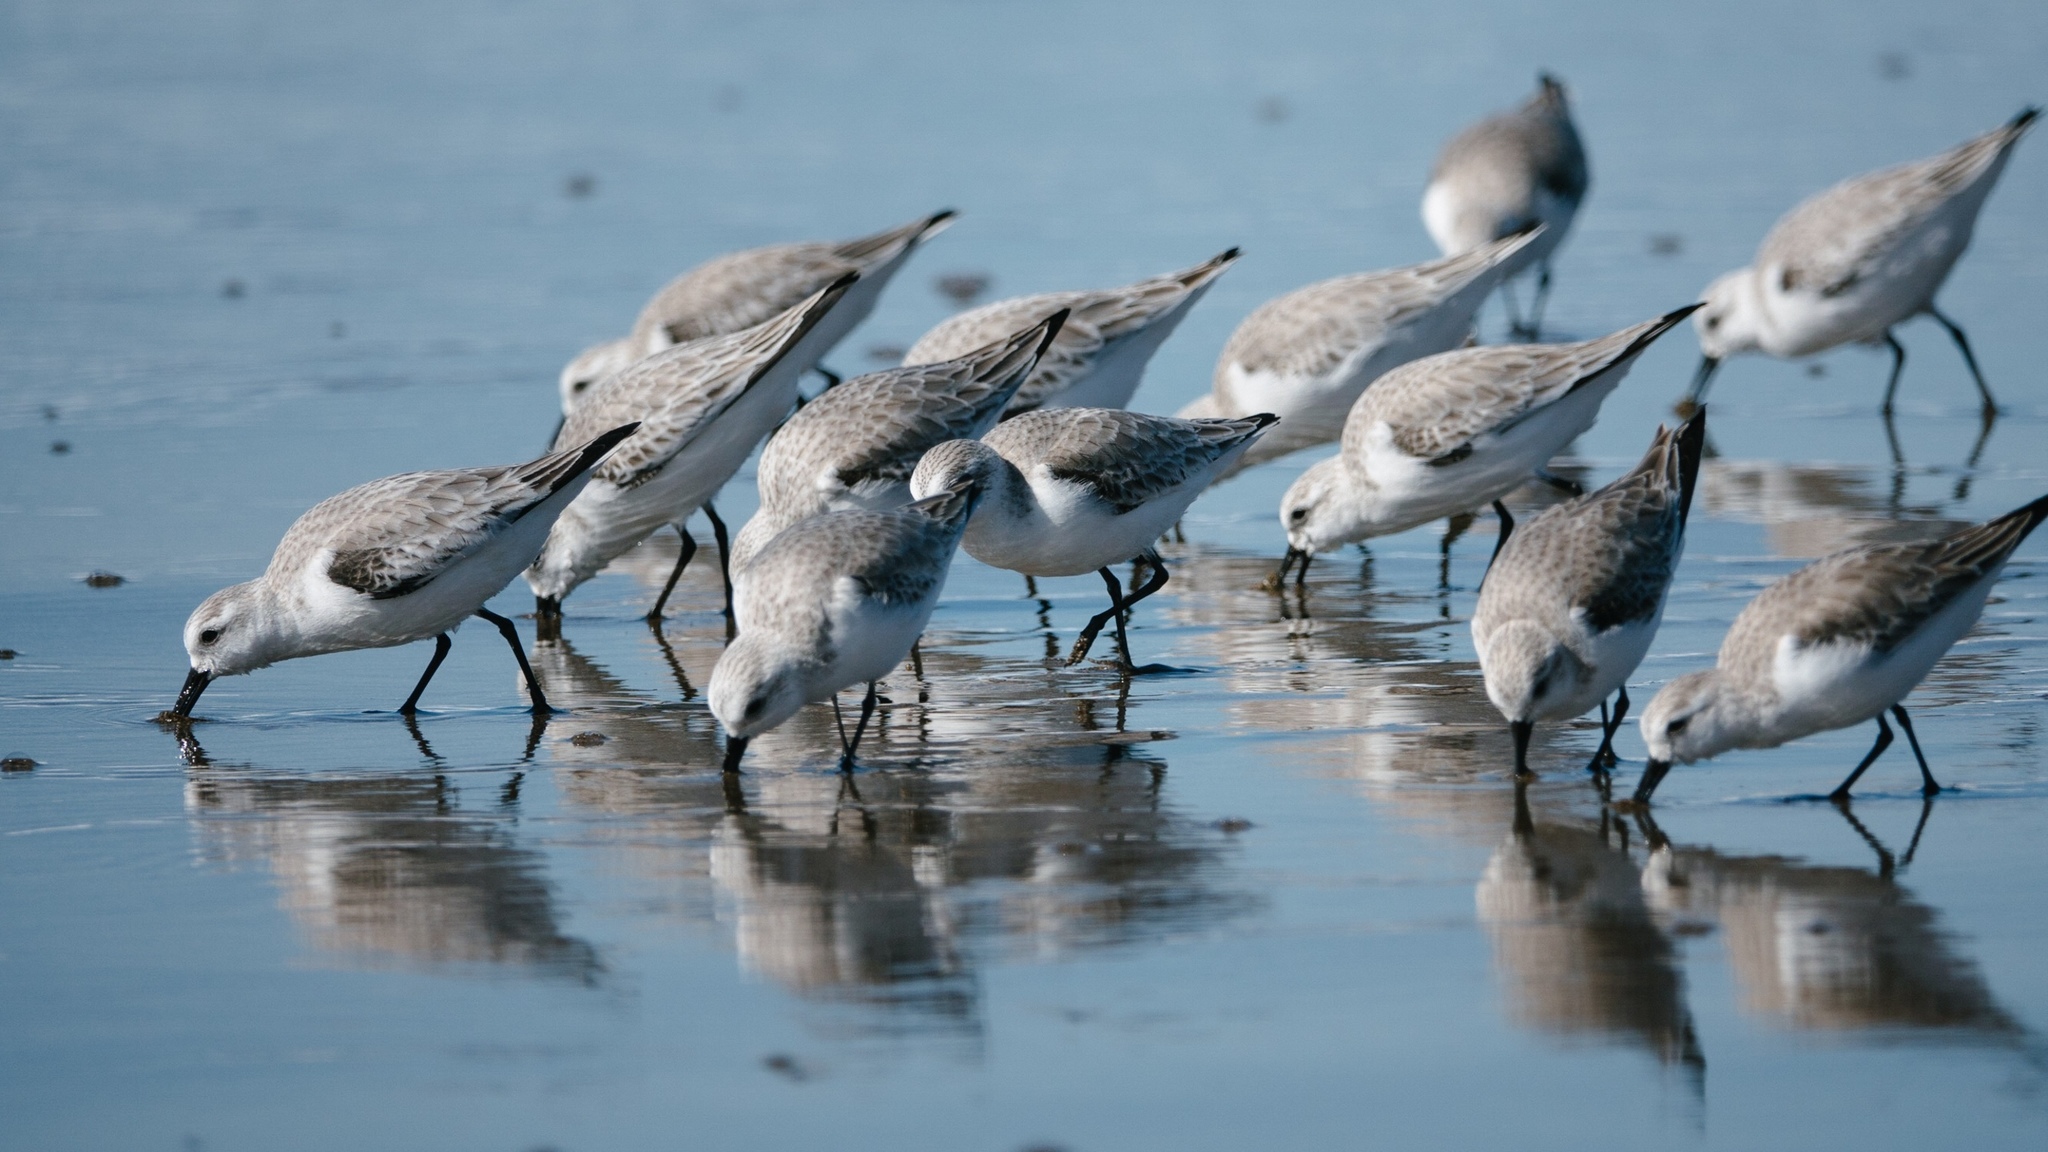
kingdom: Animalia
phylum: Chordata
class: Aves
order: Charadriiformes
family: Scolopacidae
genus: Calidris
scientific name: Calidris alba
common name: Sanderling
